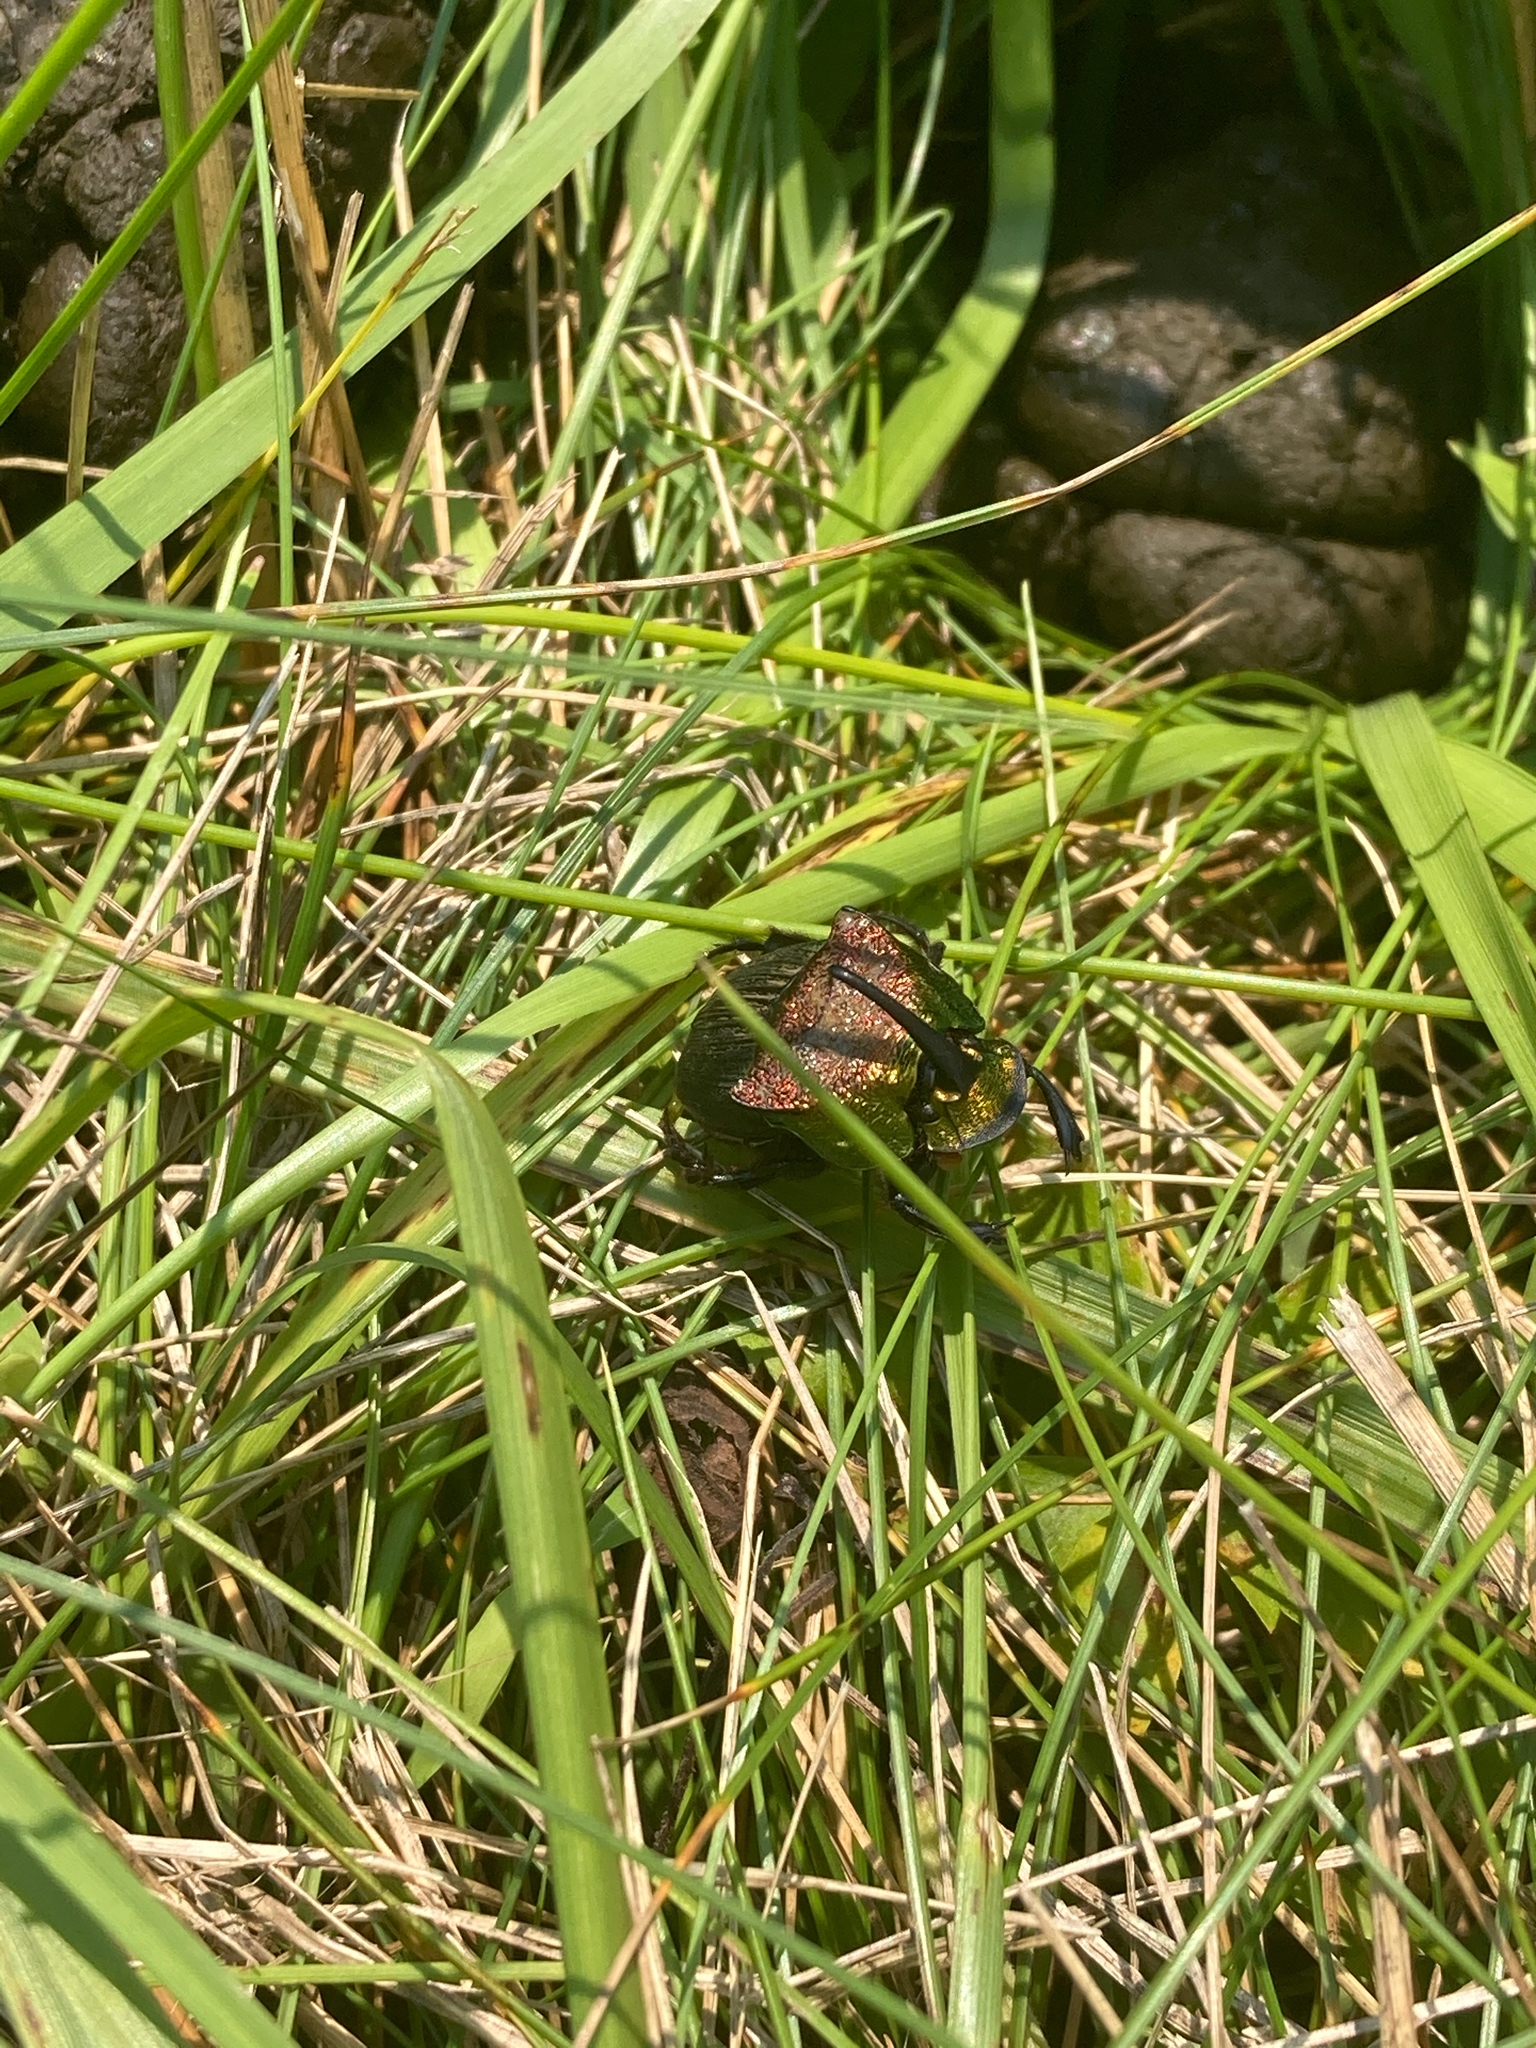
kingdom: Animalia
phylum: Arthropoda
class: Insecta
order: Coleoptera
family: Scarabaeidae
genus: Phanaeus
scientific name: Phanaeus vindex
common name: Rainbow scarab
